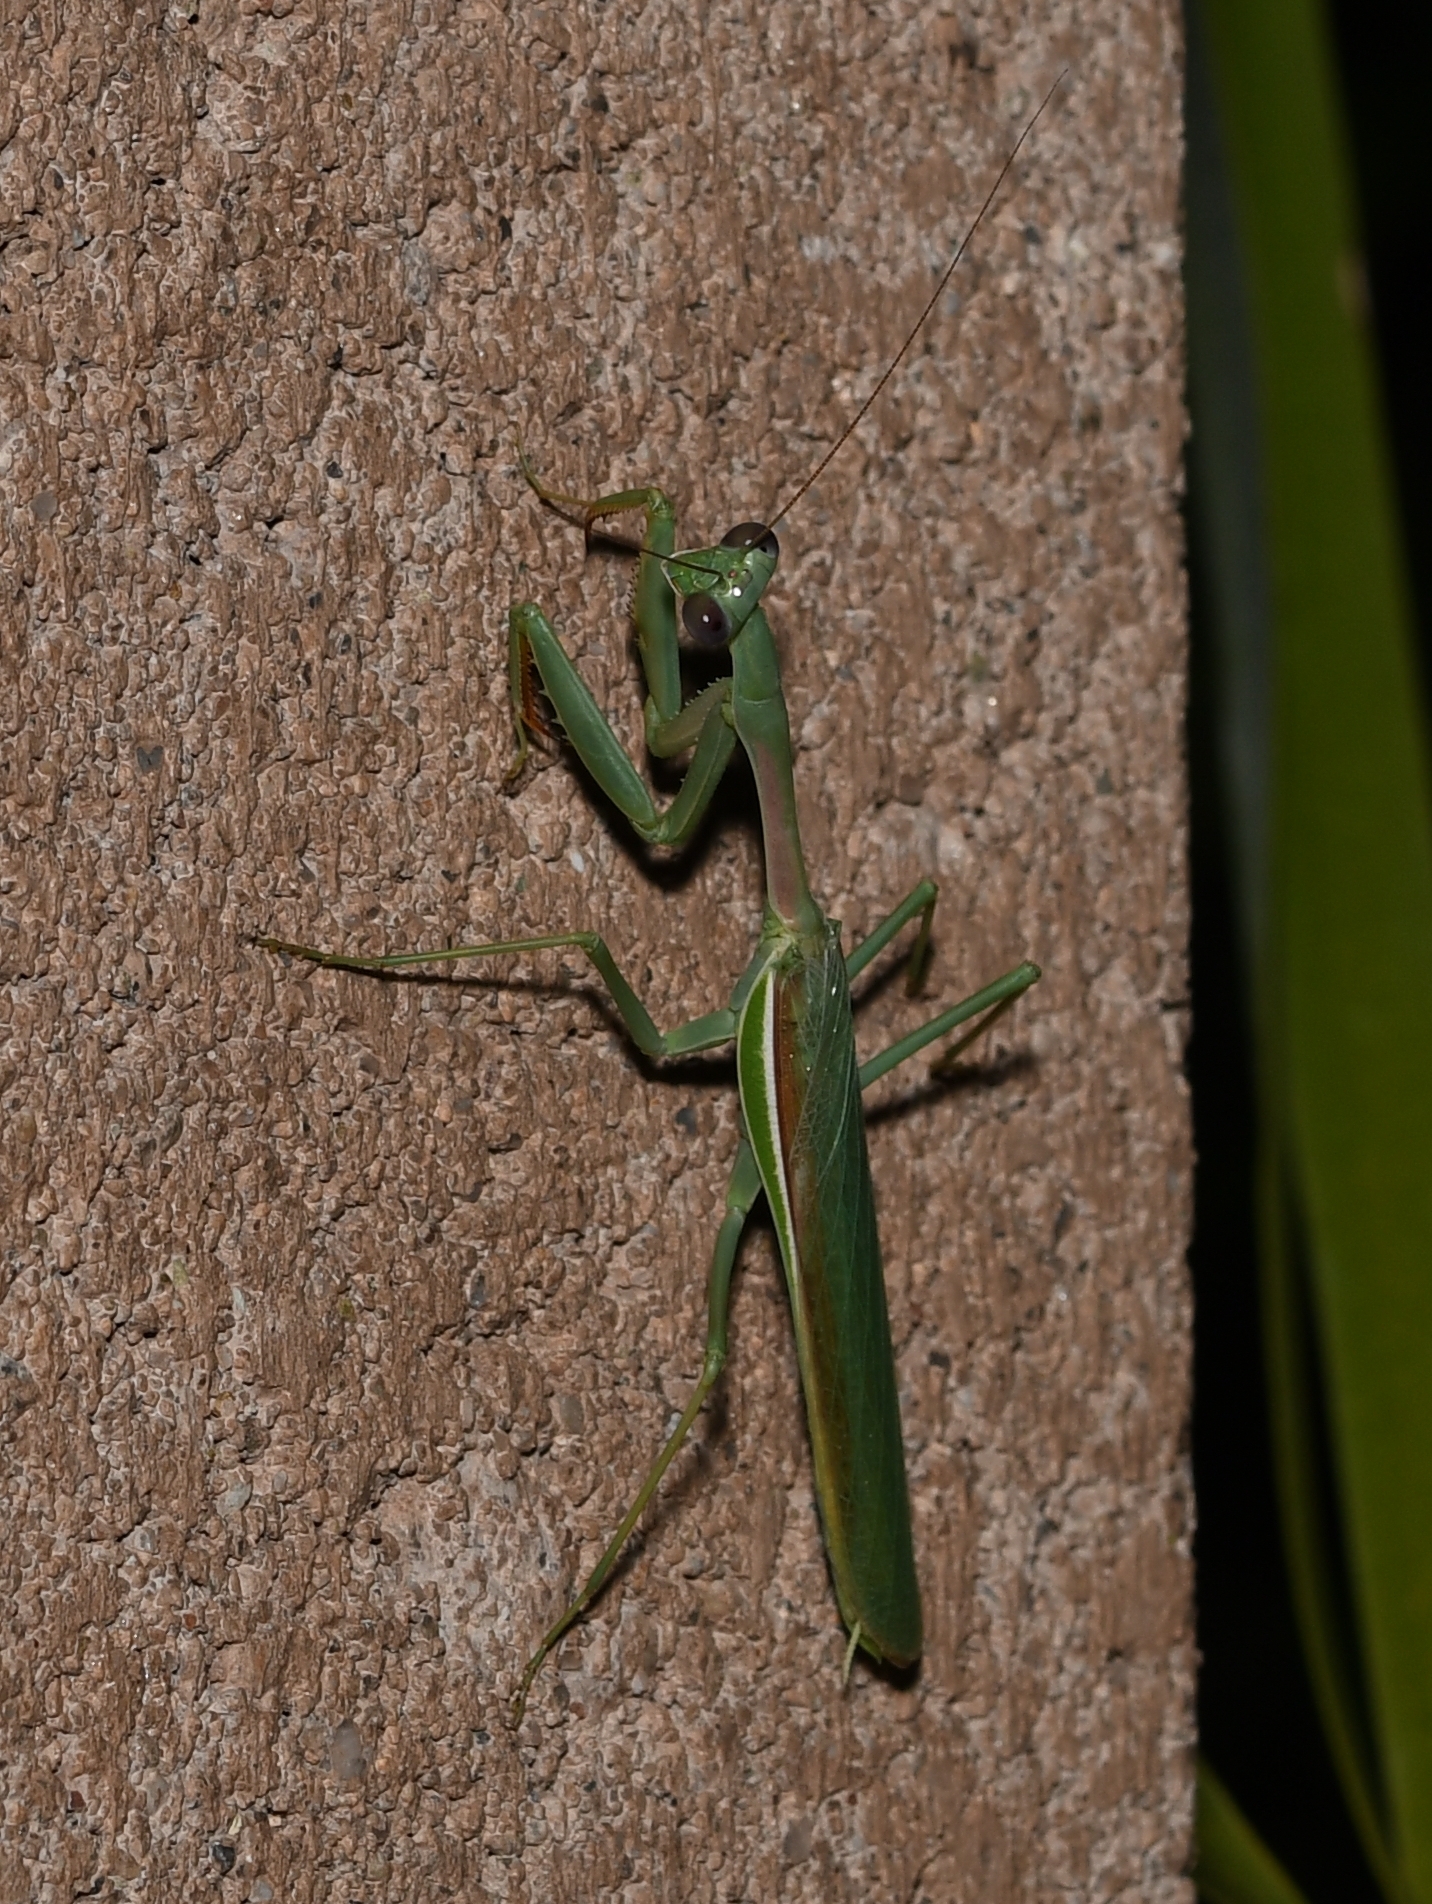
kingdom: Animalia
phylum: Arthropoda
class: Insecta
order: Mantodea
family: Mantidae
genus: Stagmomantis
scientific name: Stagmomantis limbata
